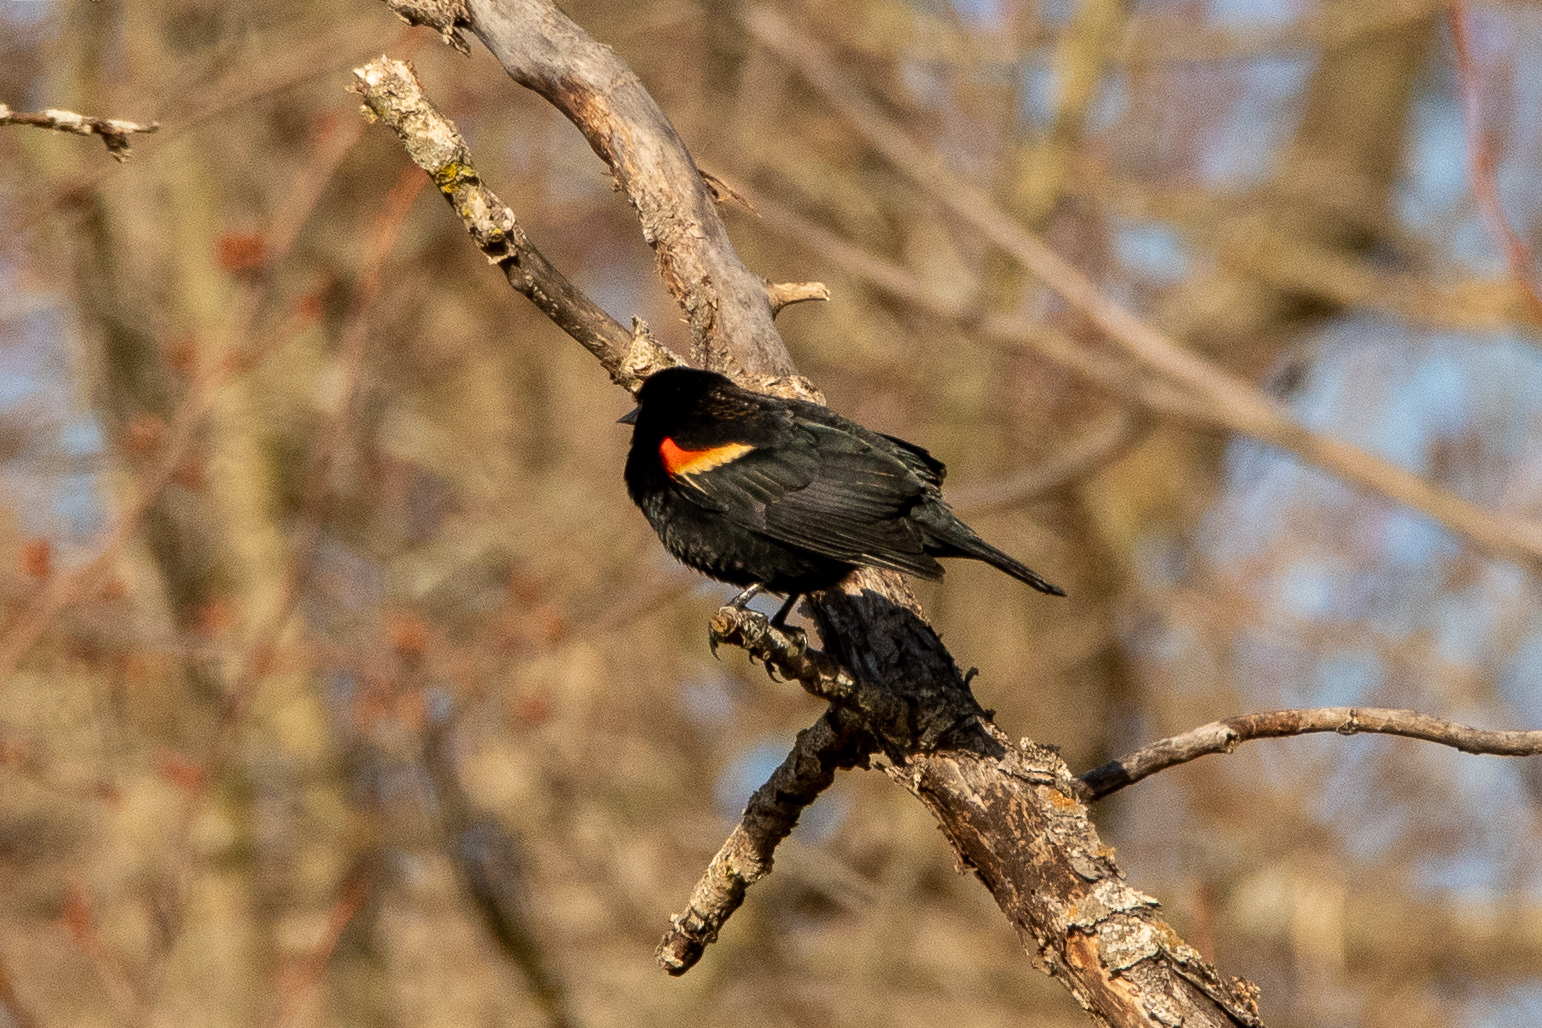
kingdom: Animalia
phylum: Chordata
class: Aves
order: Passeriformes
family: Icteridae
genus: Agelaius
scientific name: Agelaius phoeniceus
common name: Red-winged blackbird
